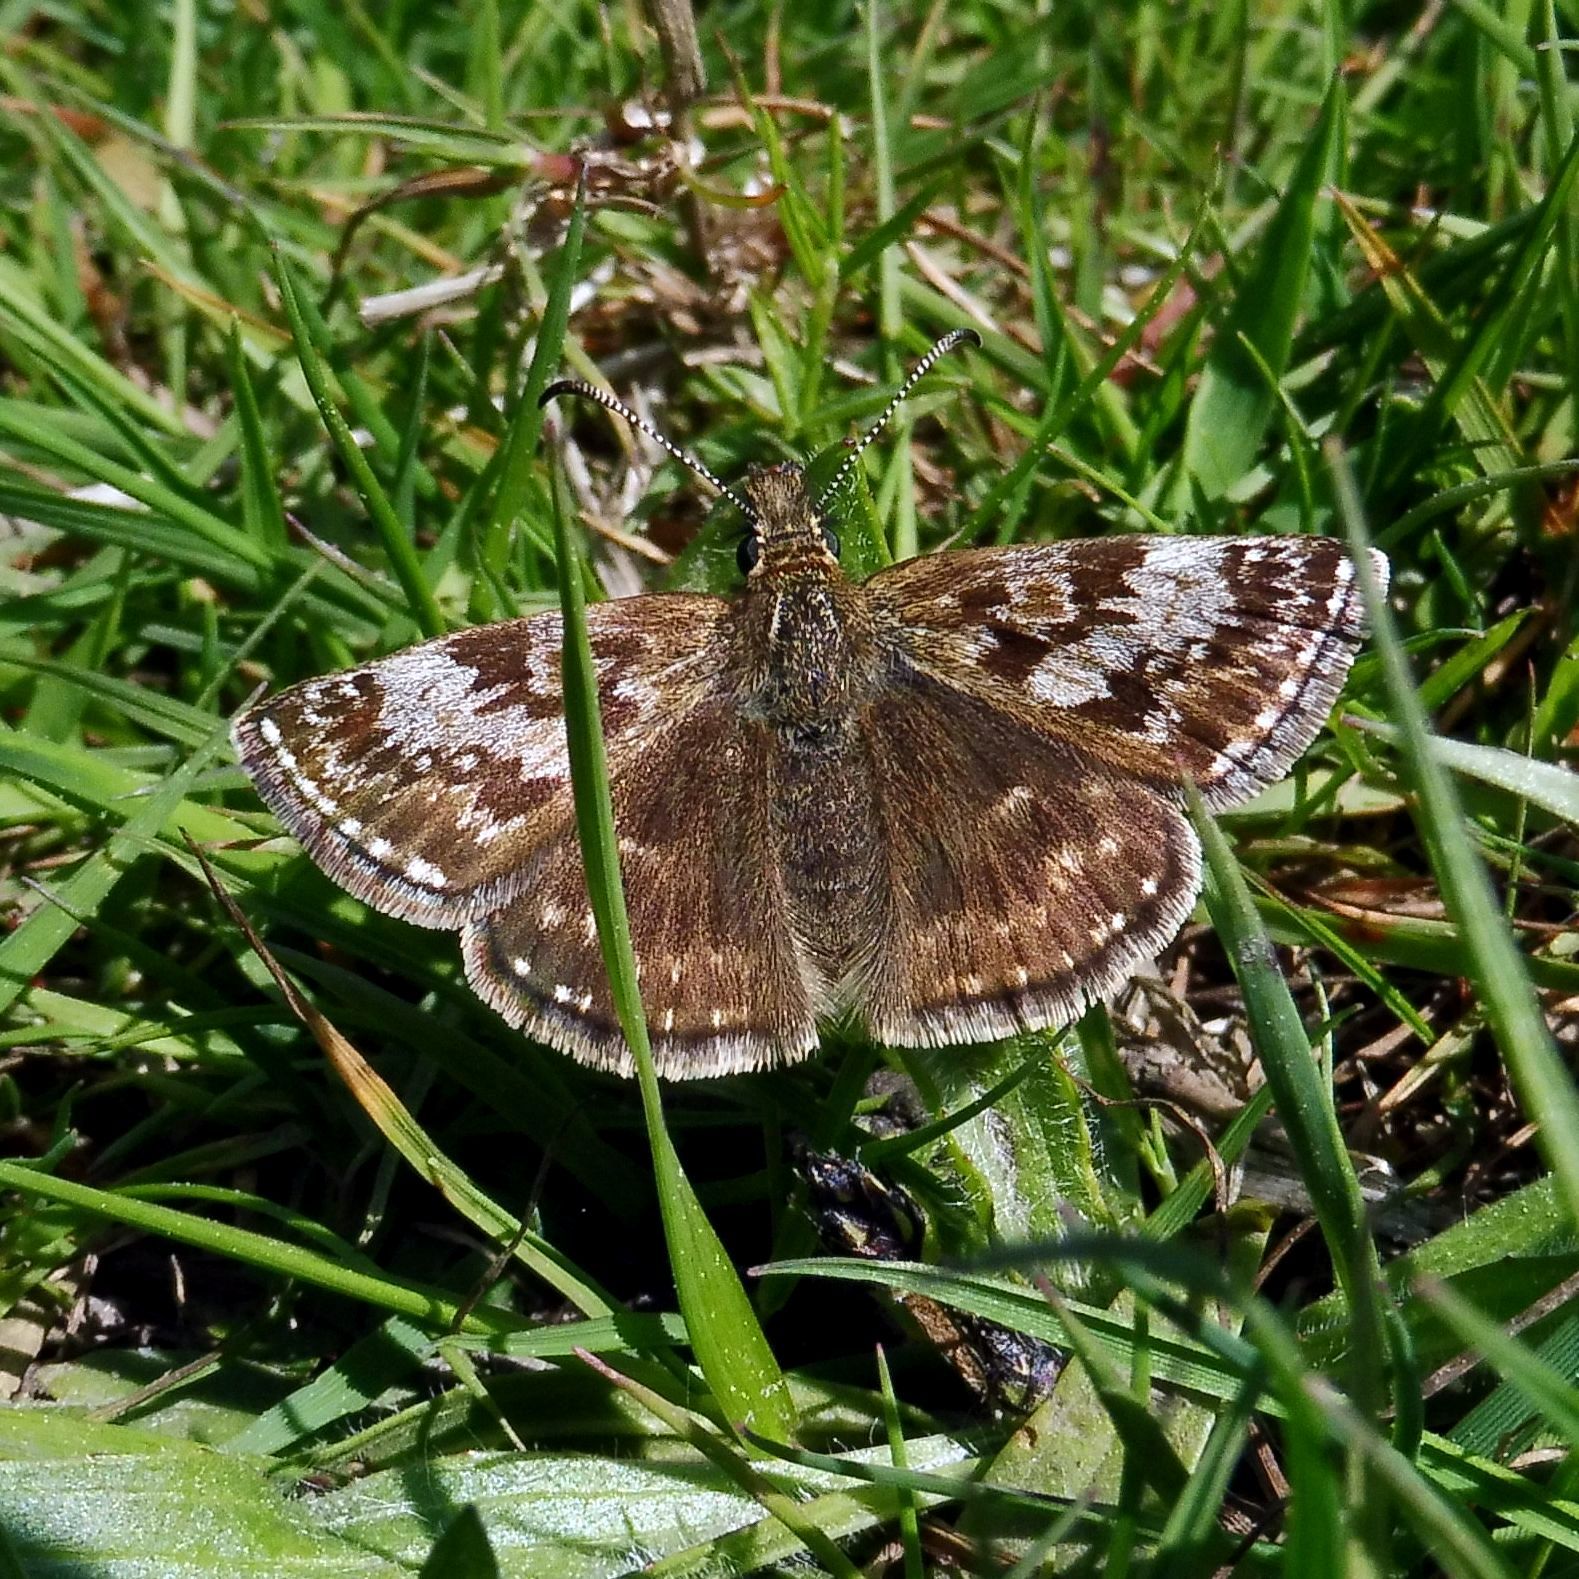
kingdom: Animalia
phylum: Arthropoda
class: Insecta
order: Lepidoptera
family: Hesperiidae
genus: Erynnis
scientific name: Erynnis tages
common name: Dingy skipper
